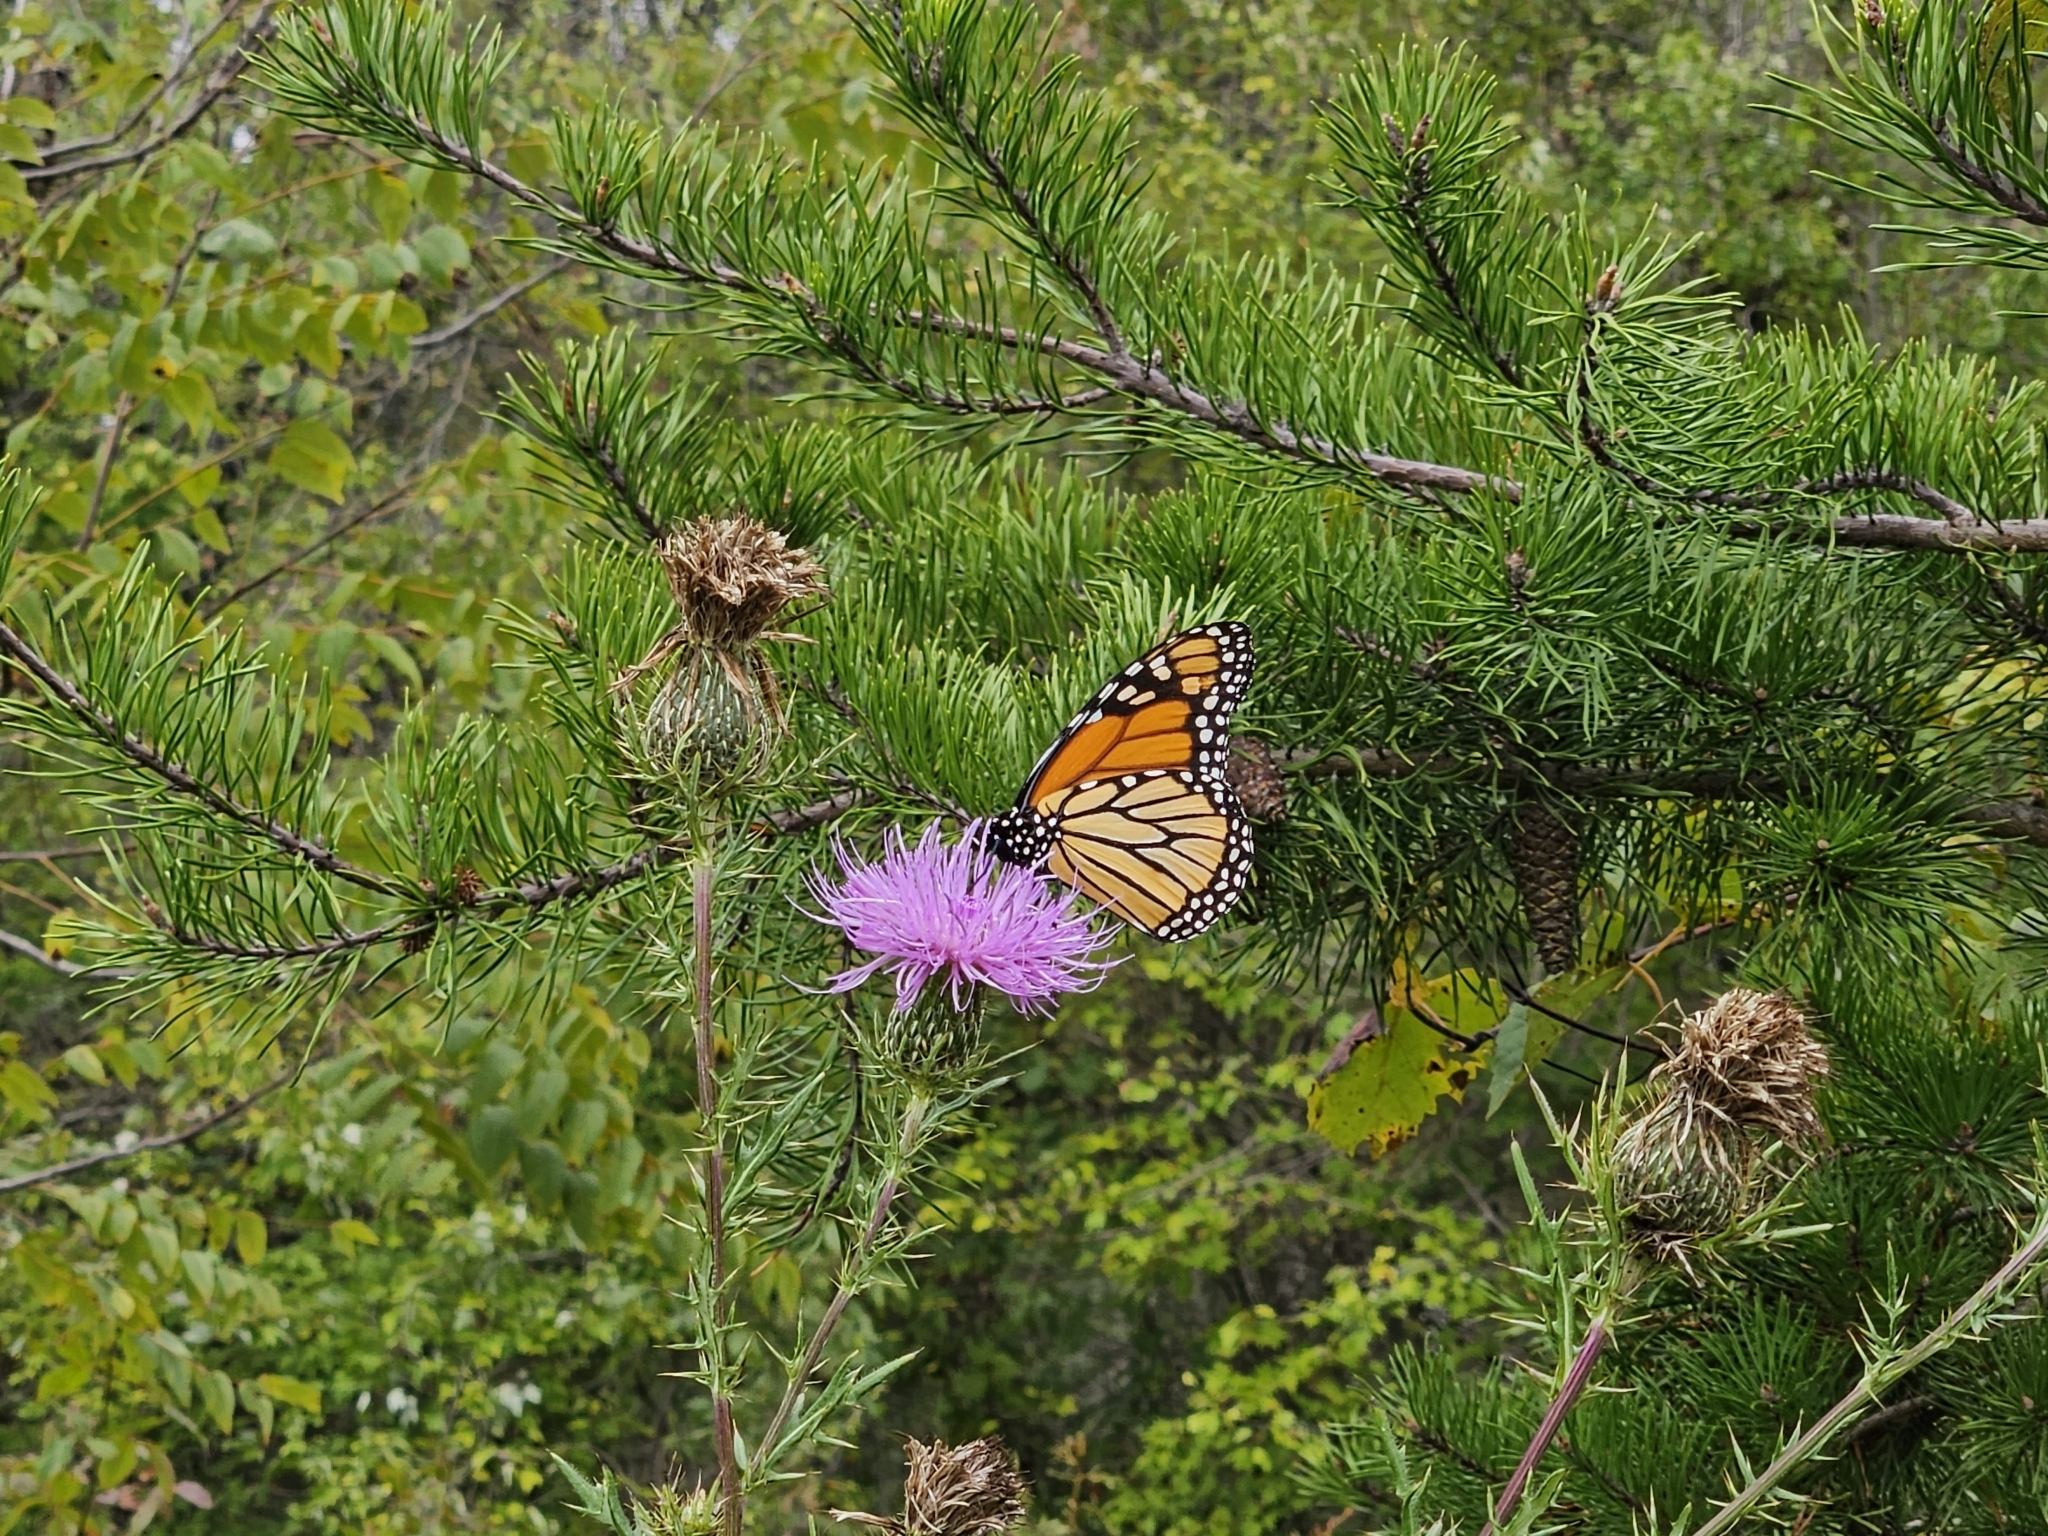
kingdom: Animalia
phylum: Arthropoda
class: Insecta
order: Lepidoptera
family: Nymphalidae
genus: Danaus
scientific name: Danaus plexippus
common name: Monarch
